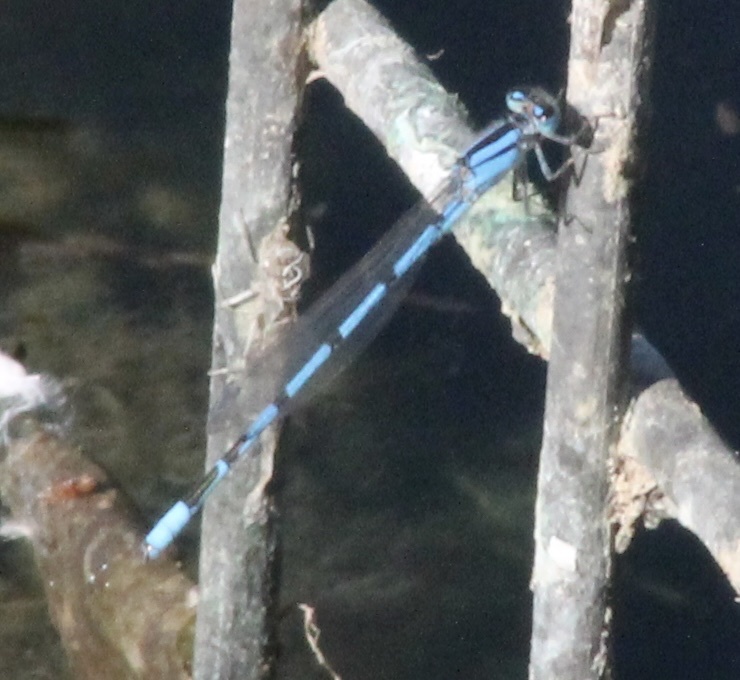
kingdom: Animalia
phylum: Arthropoda
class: Insecta
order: Odonata
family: Coenagrionidae
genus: Enallagma
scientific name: Enallagma civile
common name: Damselfly
